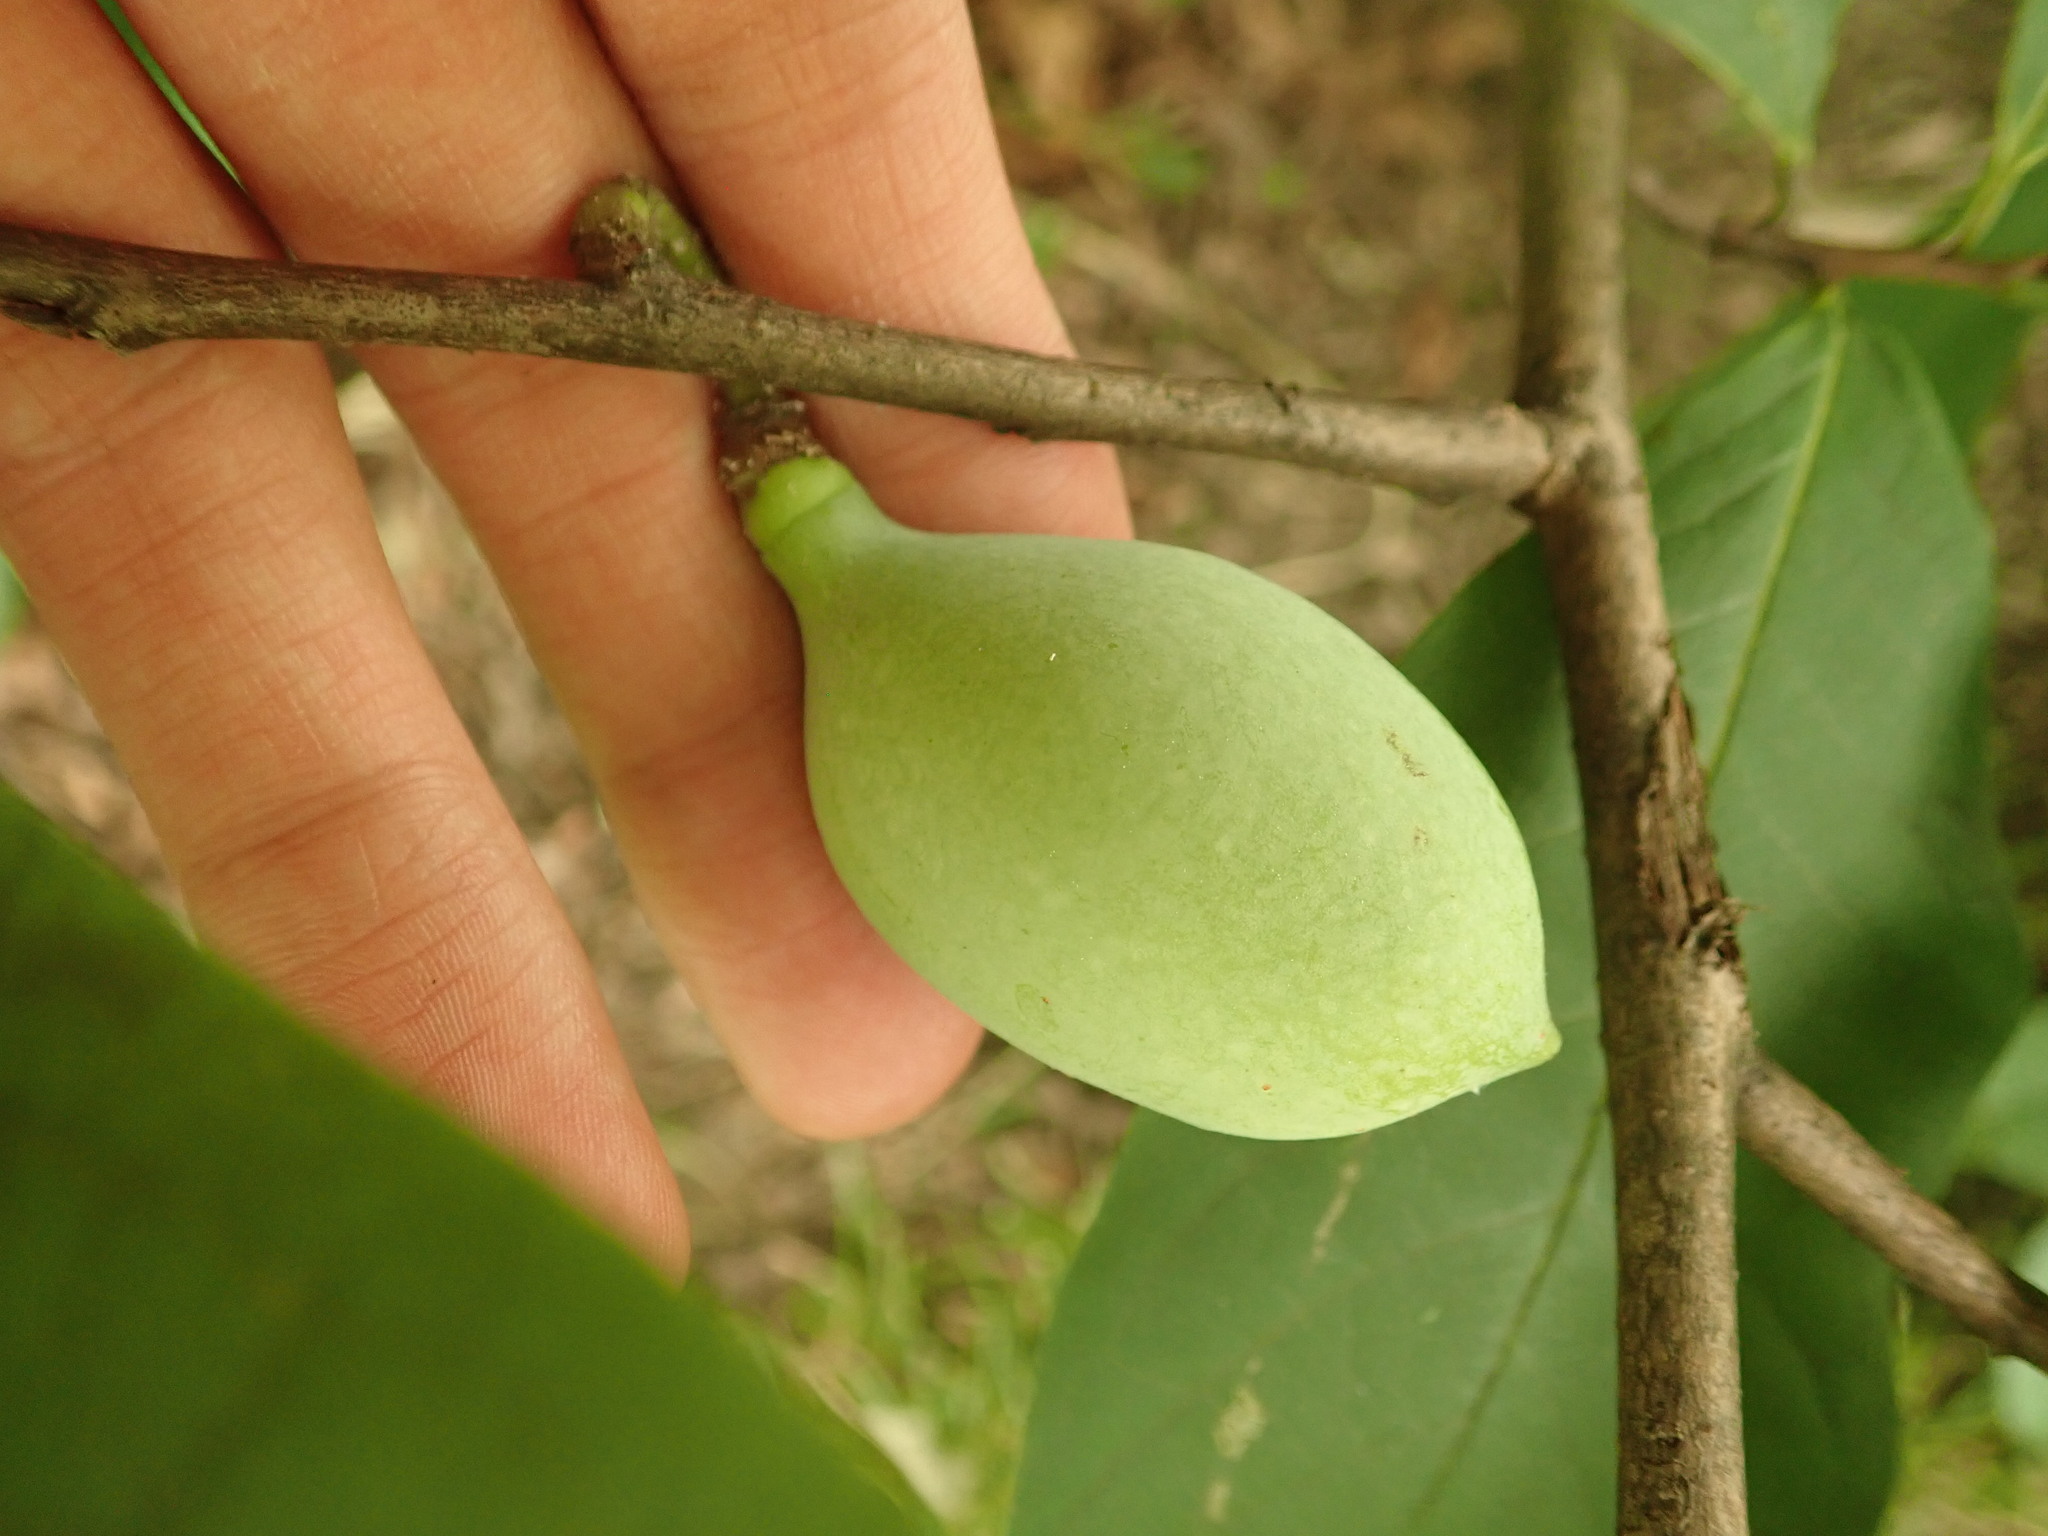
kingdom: Plantae
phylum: Tracheophyta
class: Magnoliopsida
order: Magnoliales
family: Annonaceae
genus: Asimina
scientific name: Asimina triloba
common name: Dog-banana
